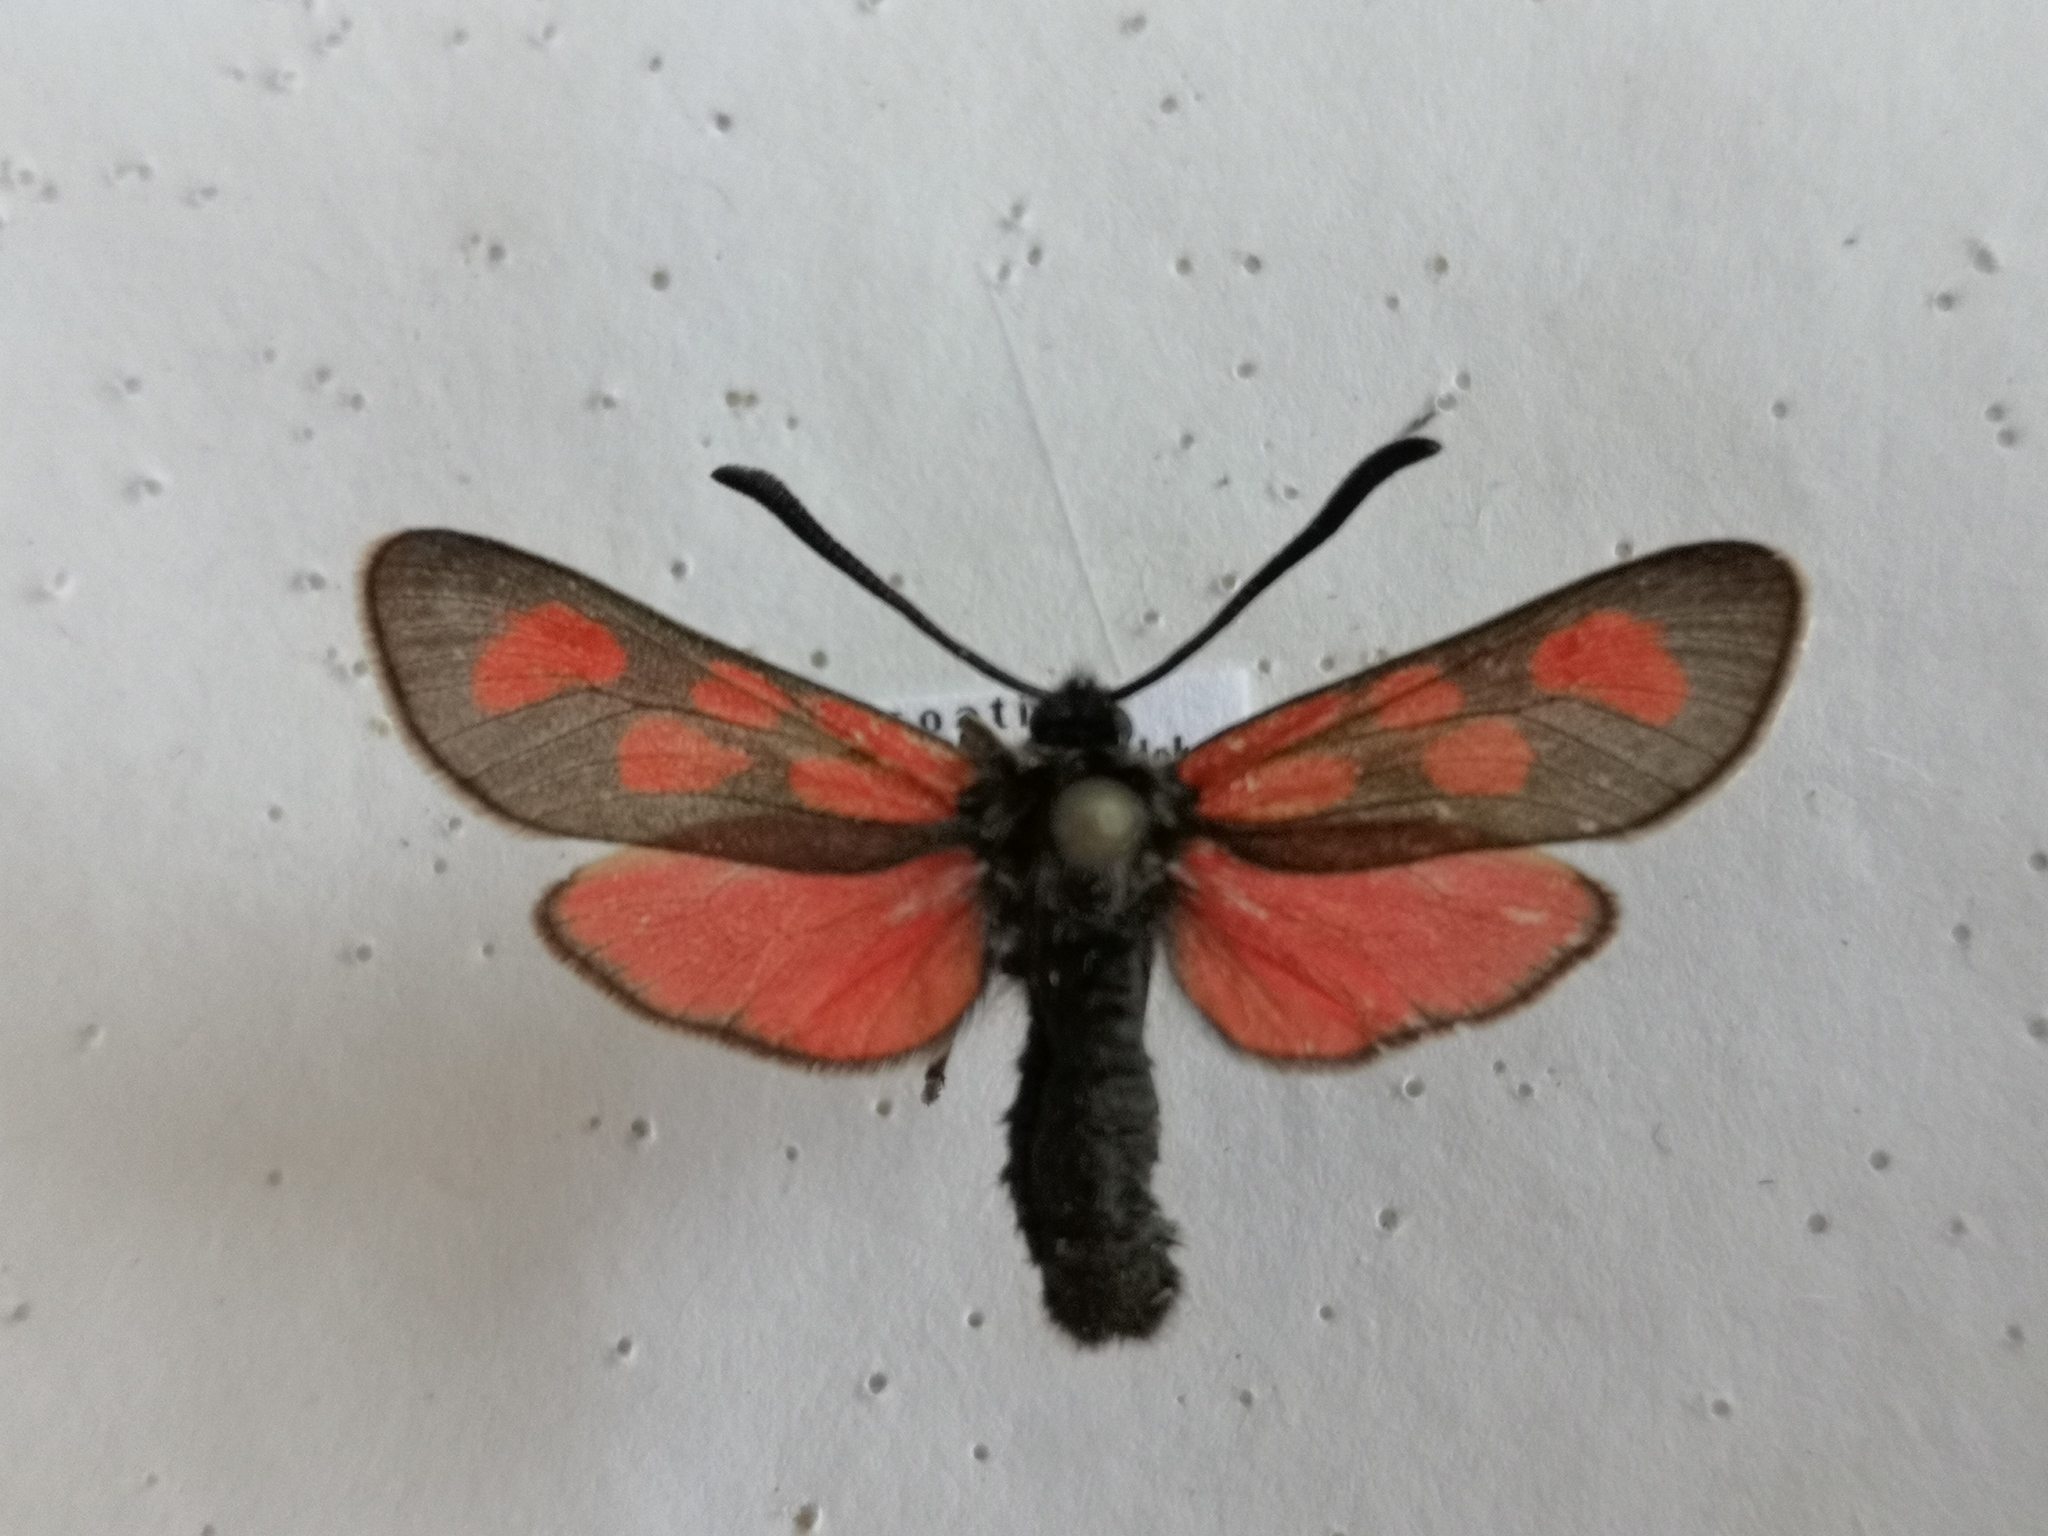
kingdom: Animalia
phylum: Arthropoda
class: Insecta
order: Lepidoptera
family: Zygaenidae
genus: Zygaena
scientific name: Zygaena loti
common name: Slender scotch burnet
